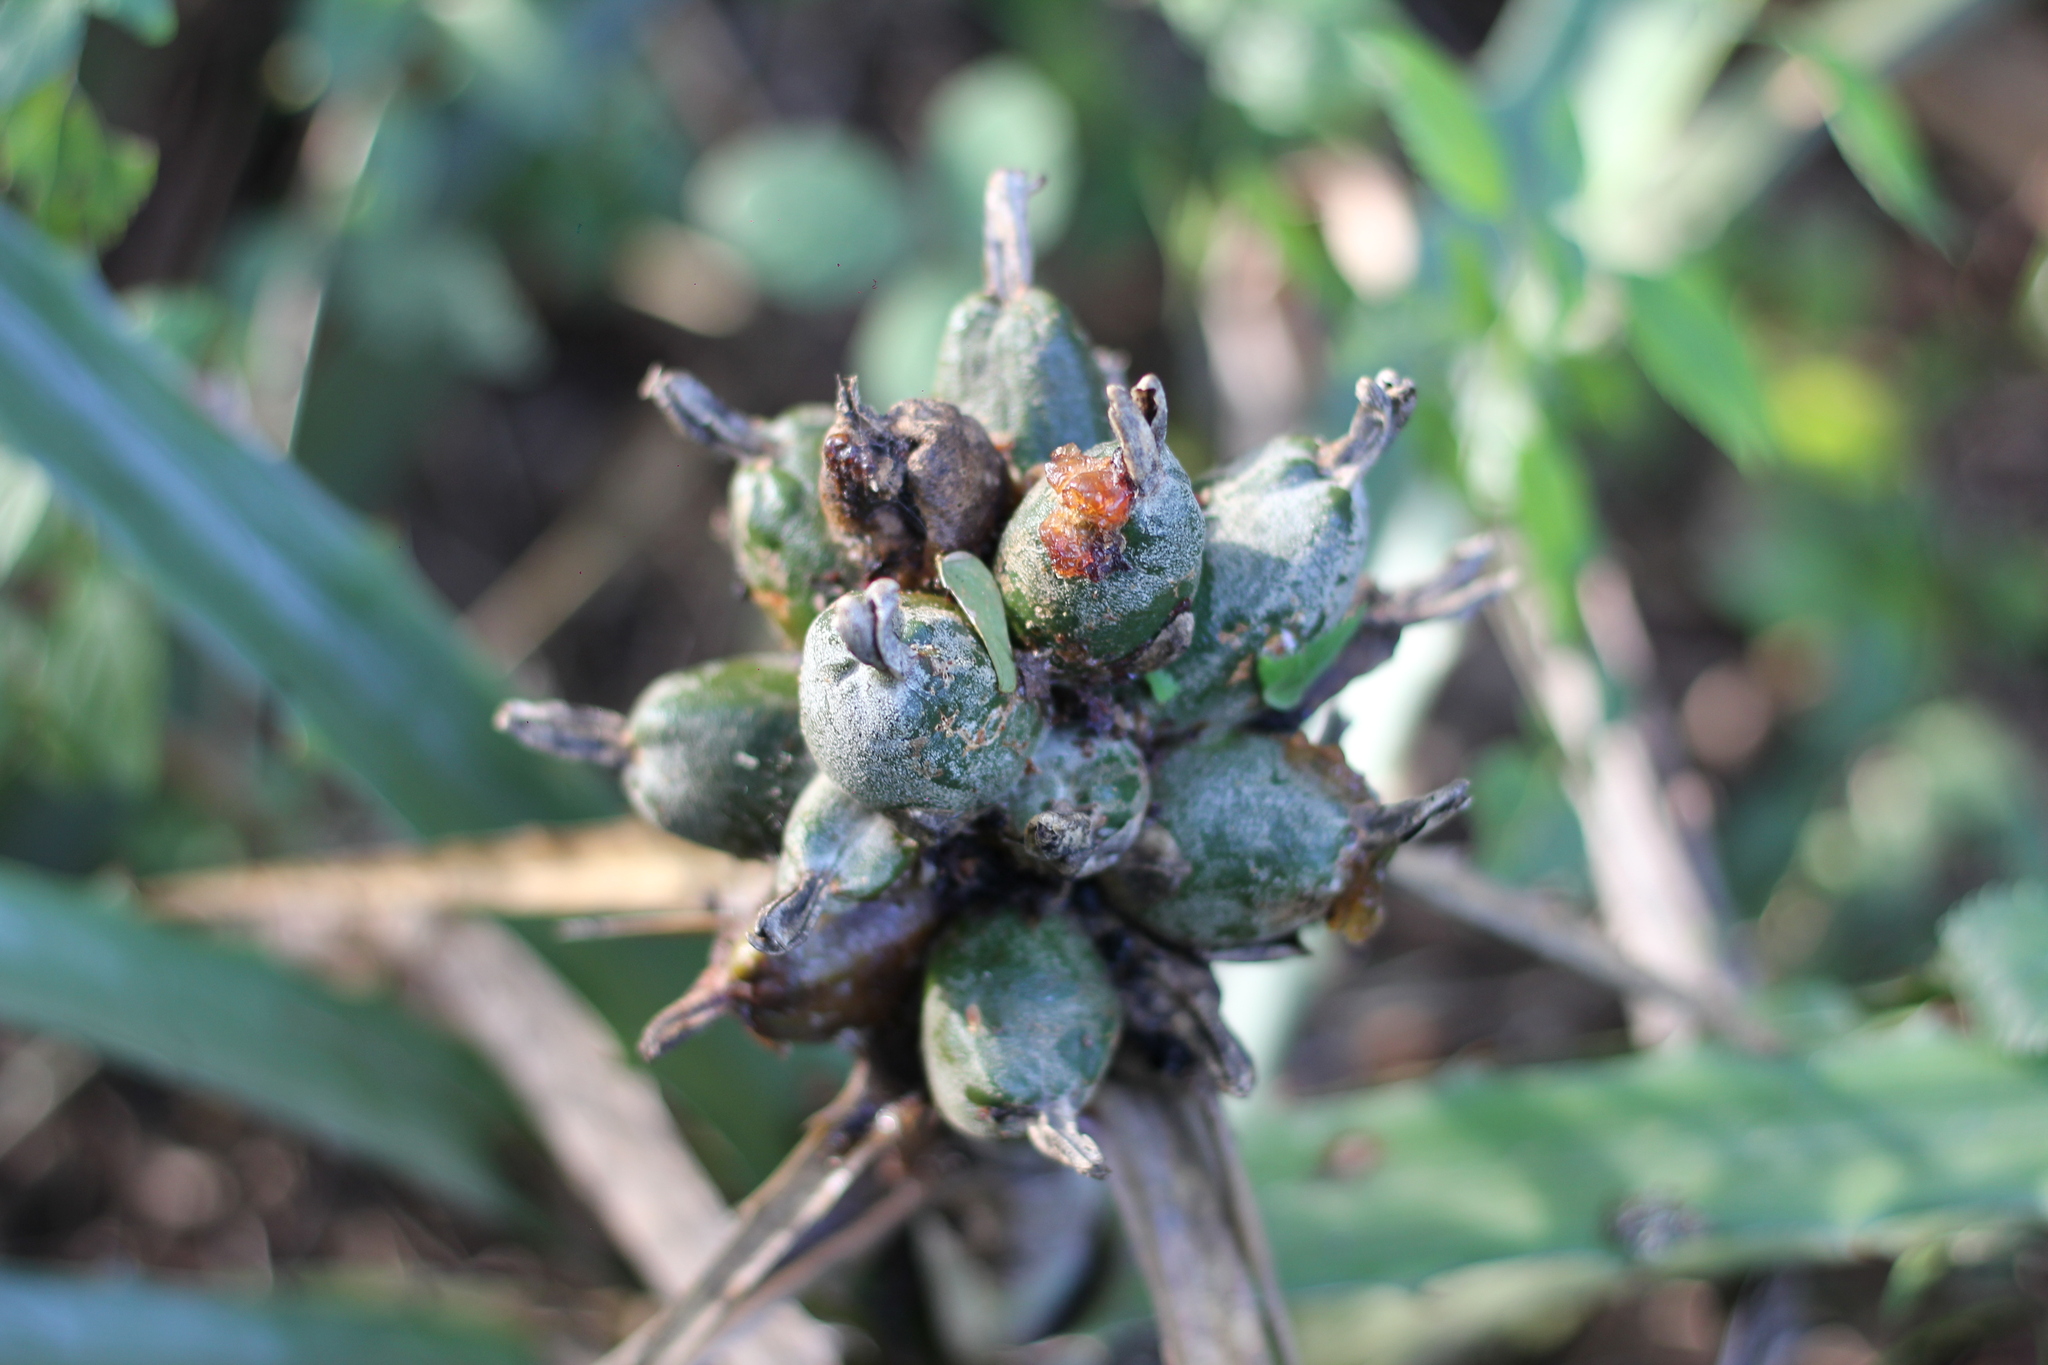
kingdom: Plantae
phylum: Tracheophyta
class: Liliopsida
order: Poales
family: Bromeliaceae
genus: Bromelia
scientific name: Bromelia balansae
